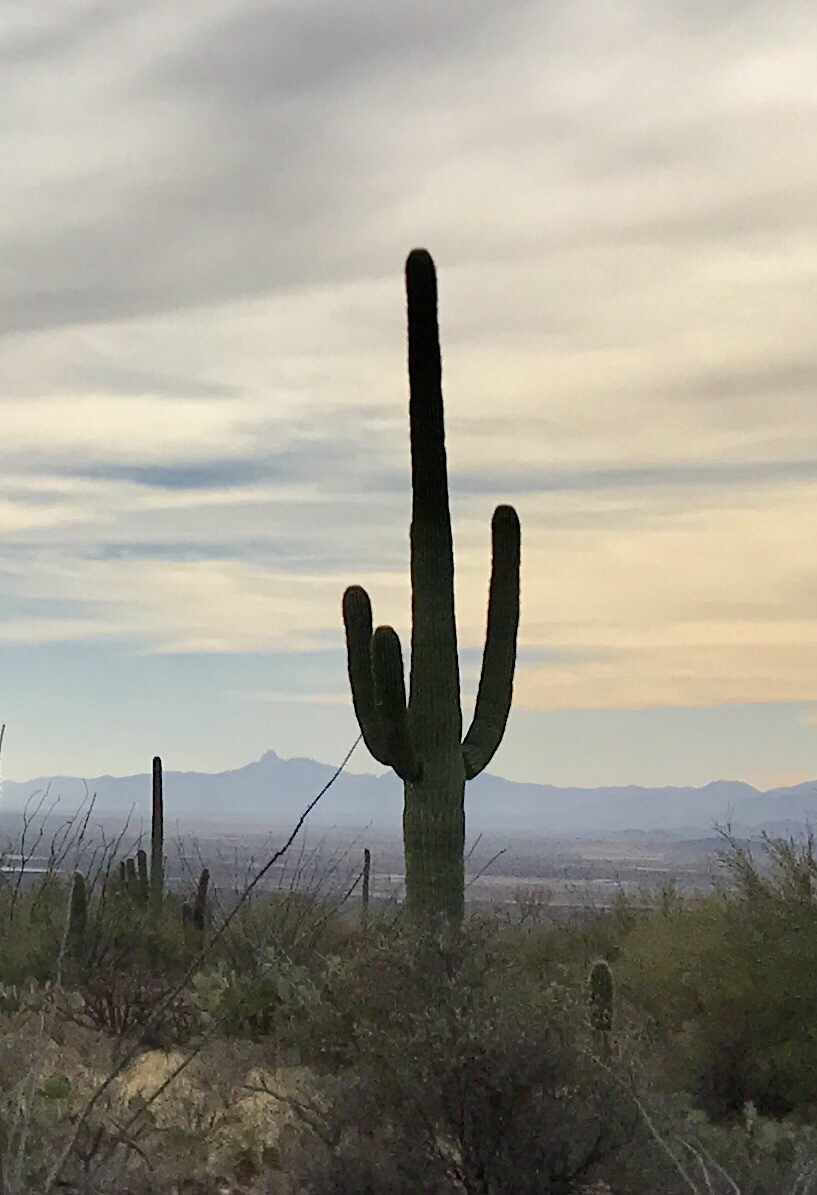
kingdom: Plantae
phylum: Tracheophyta
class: Magnoliopsida
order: Caryophyllales
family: Cactaceae
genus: Carnegiea
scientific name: Carnegiea gigantea
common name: Saguaro
